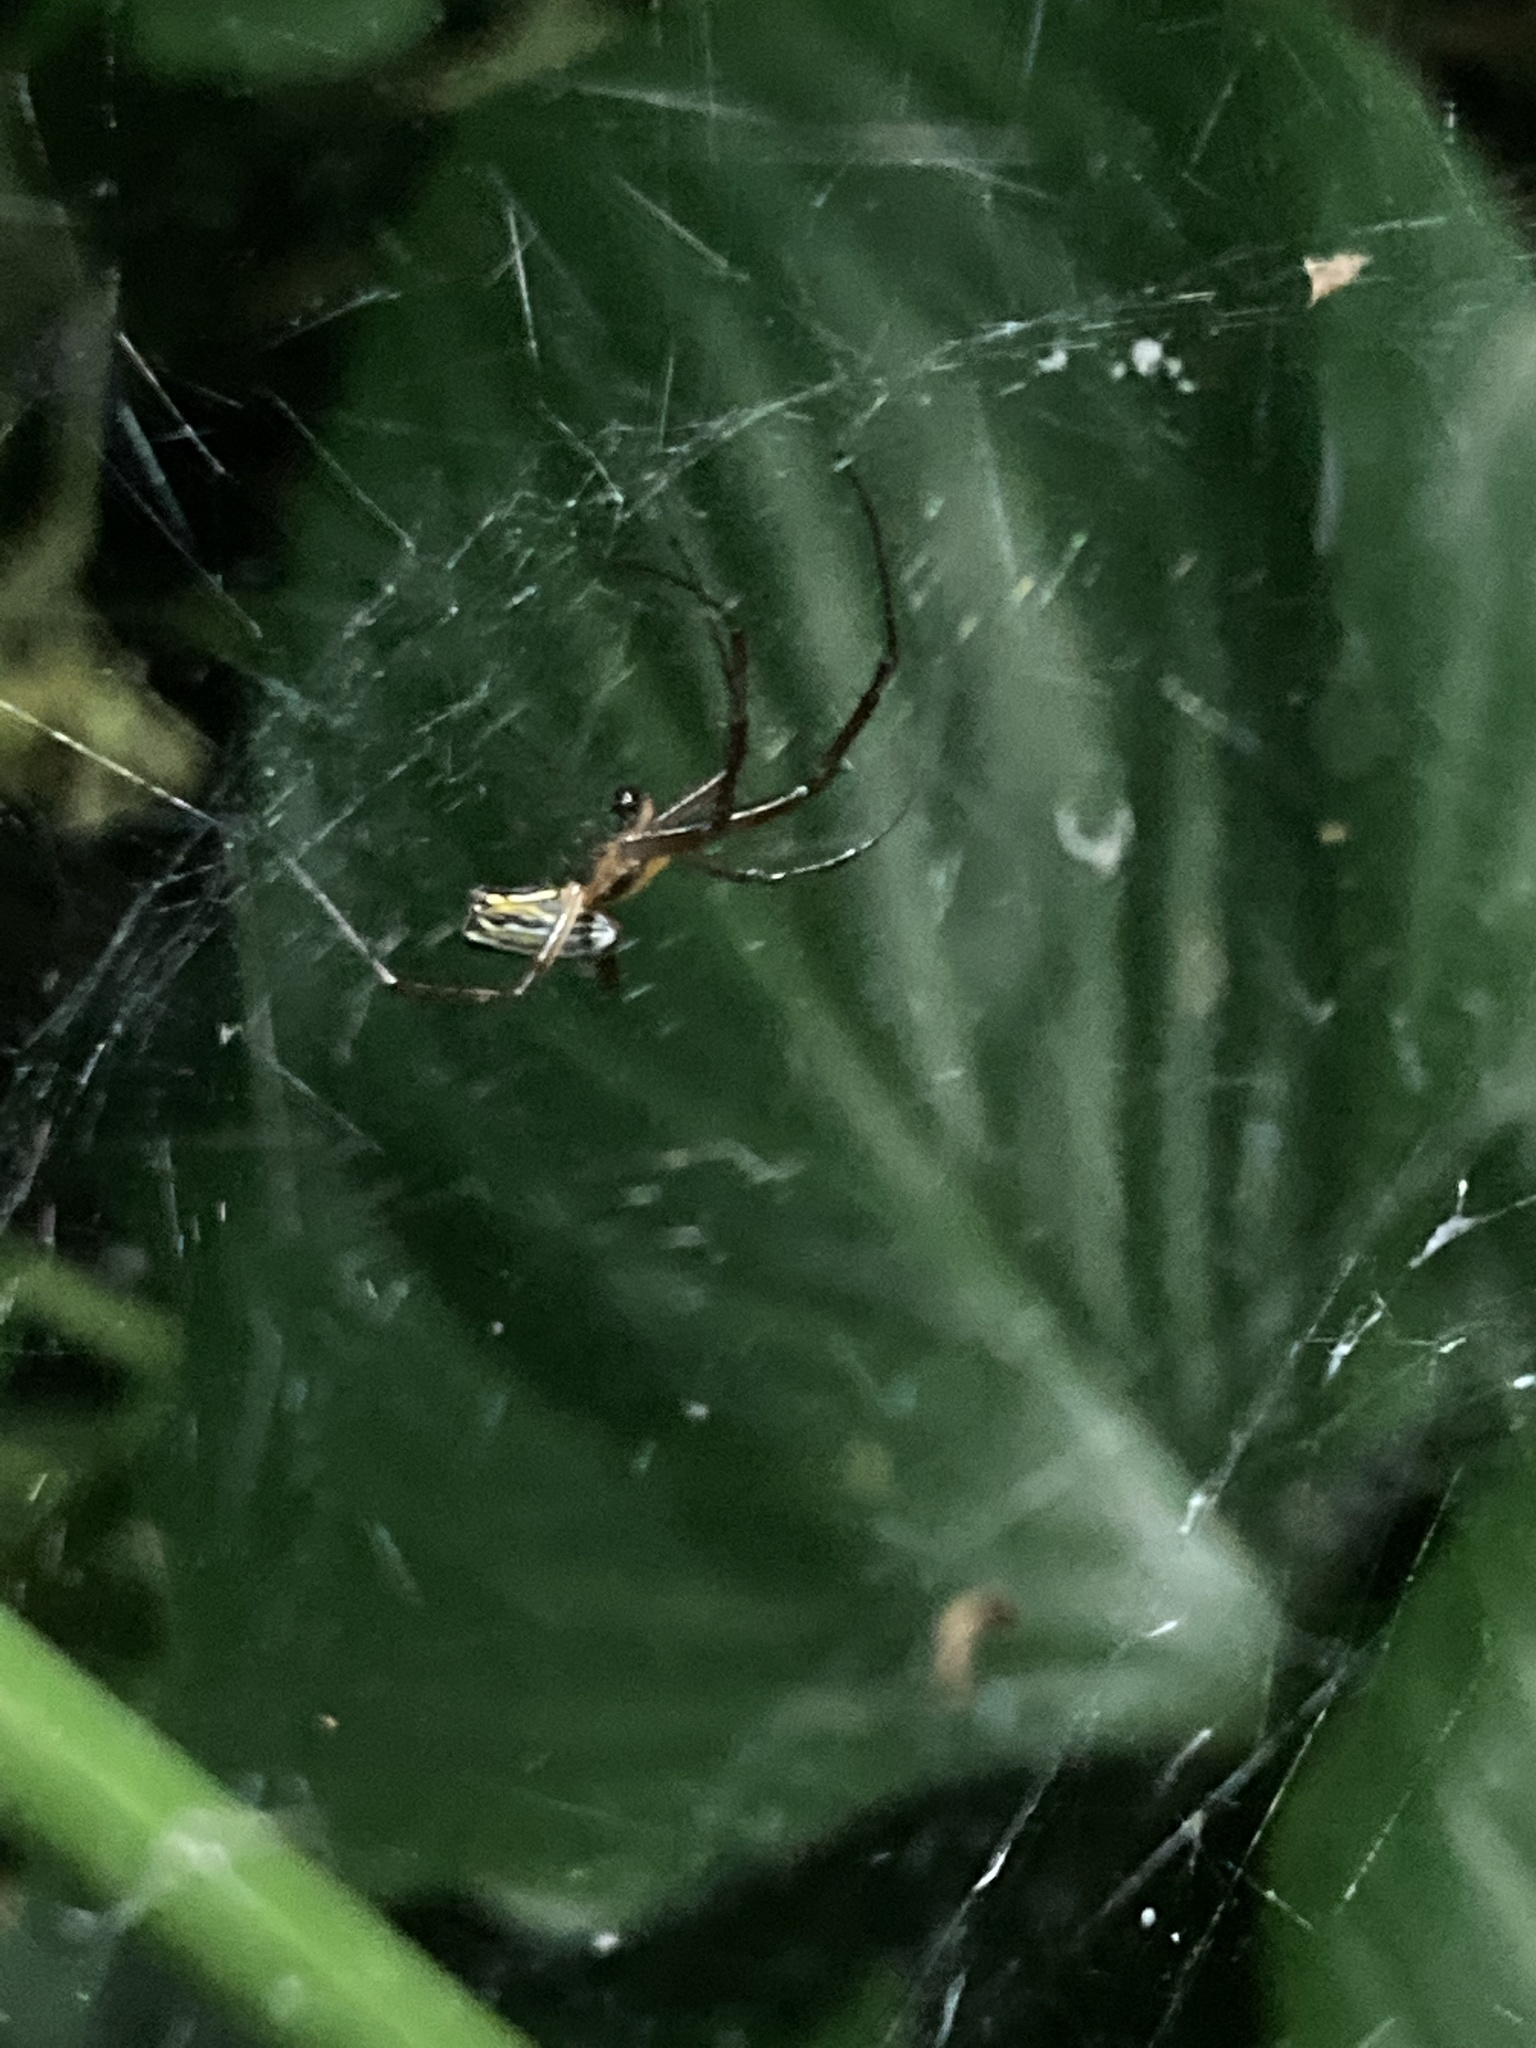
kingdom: Animalia
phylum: Arthropoda
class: Arachnida
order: Araneae
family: Araneidae
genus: Mecynogea
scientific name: Mecynogea lemniscata
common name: Orb weavers
